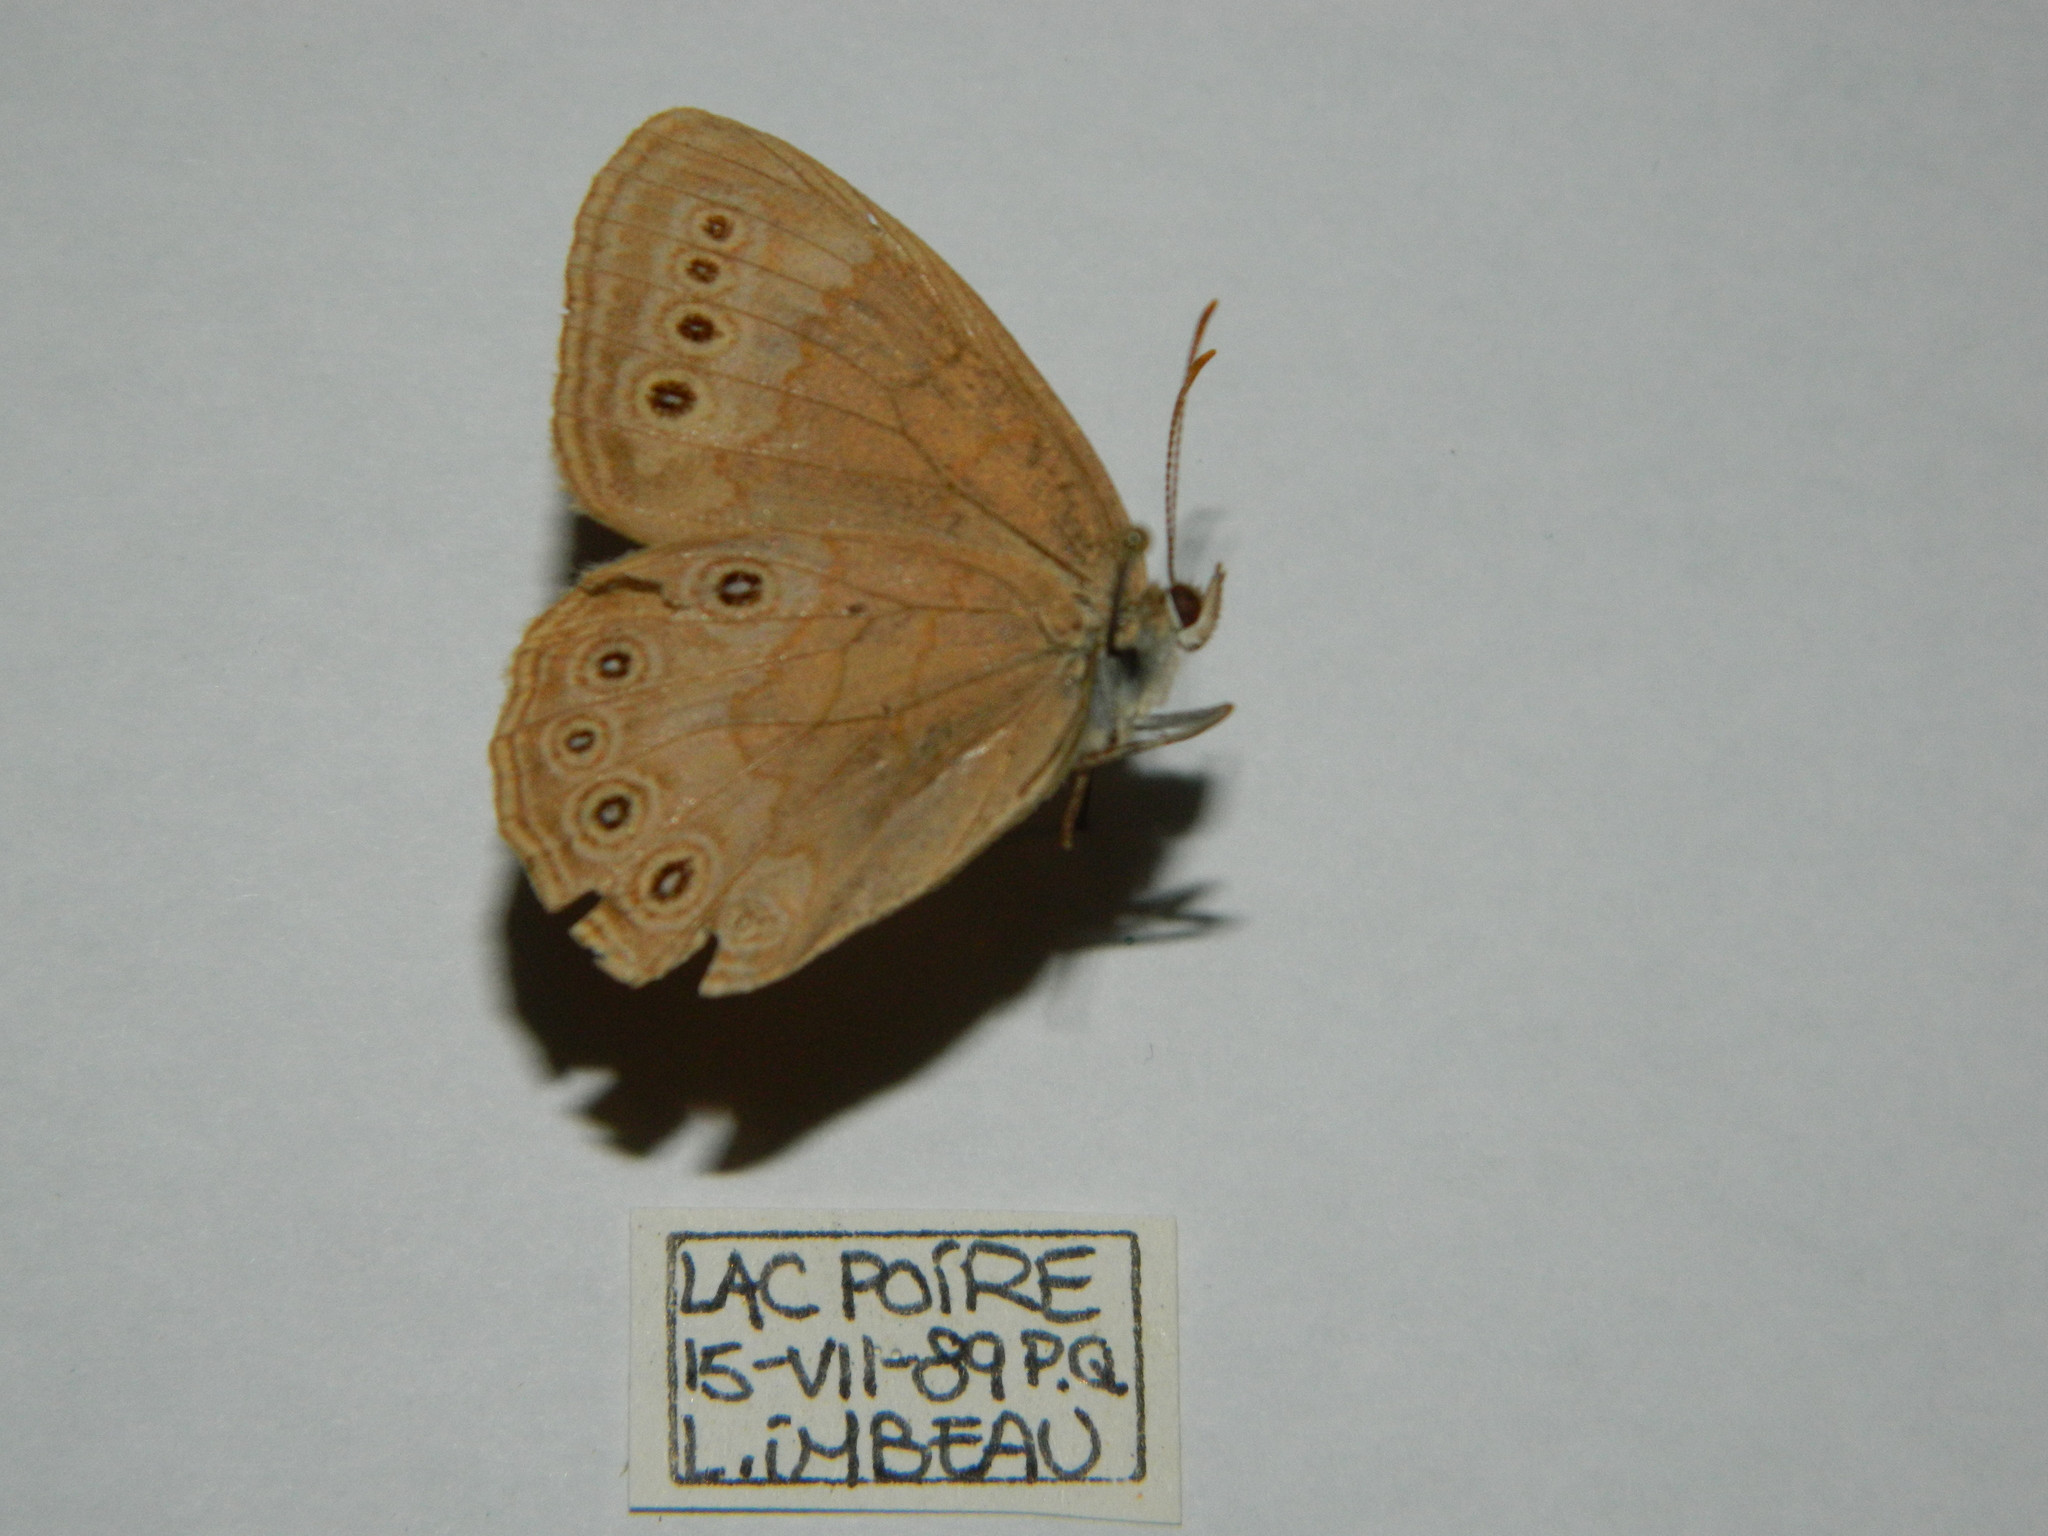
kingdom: Animalia
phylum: Arthropoda
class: Insecta
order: Lepidoptera
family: Nymphalidae
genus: Lethe
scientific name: Lethe eurydice
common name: Eyed brown
